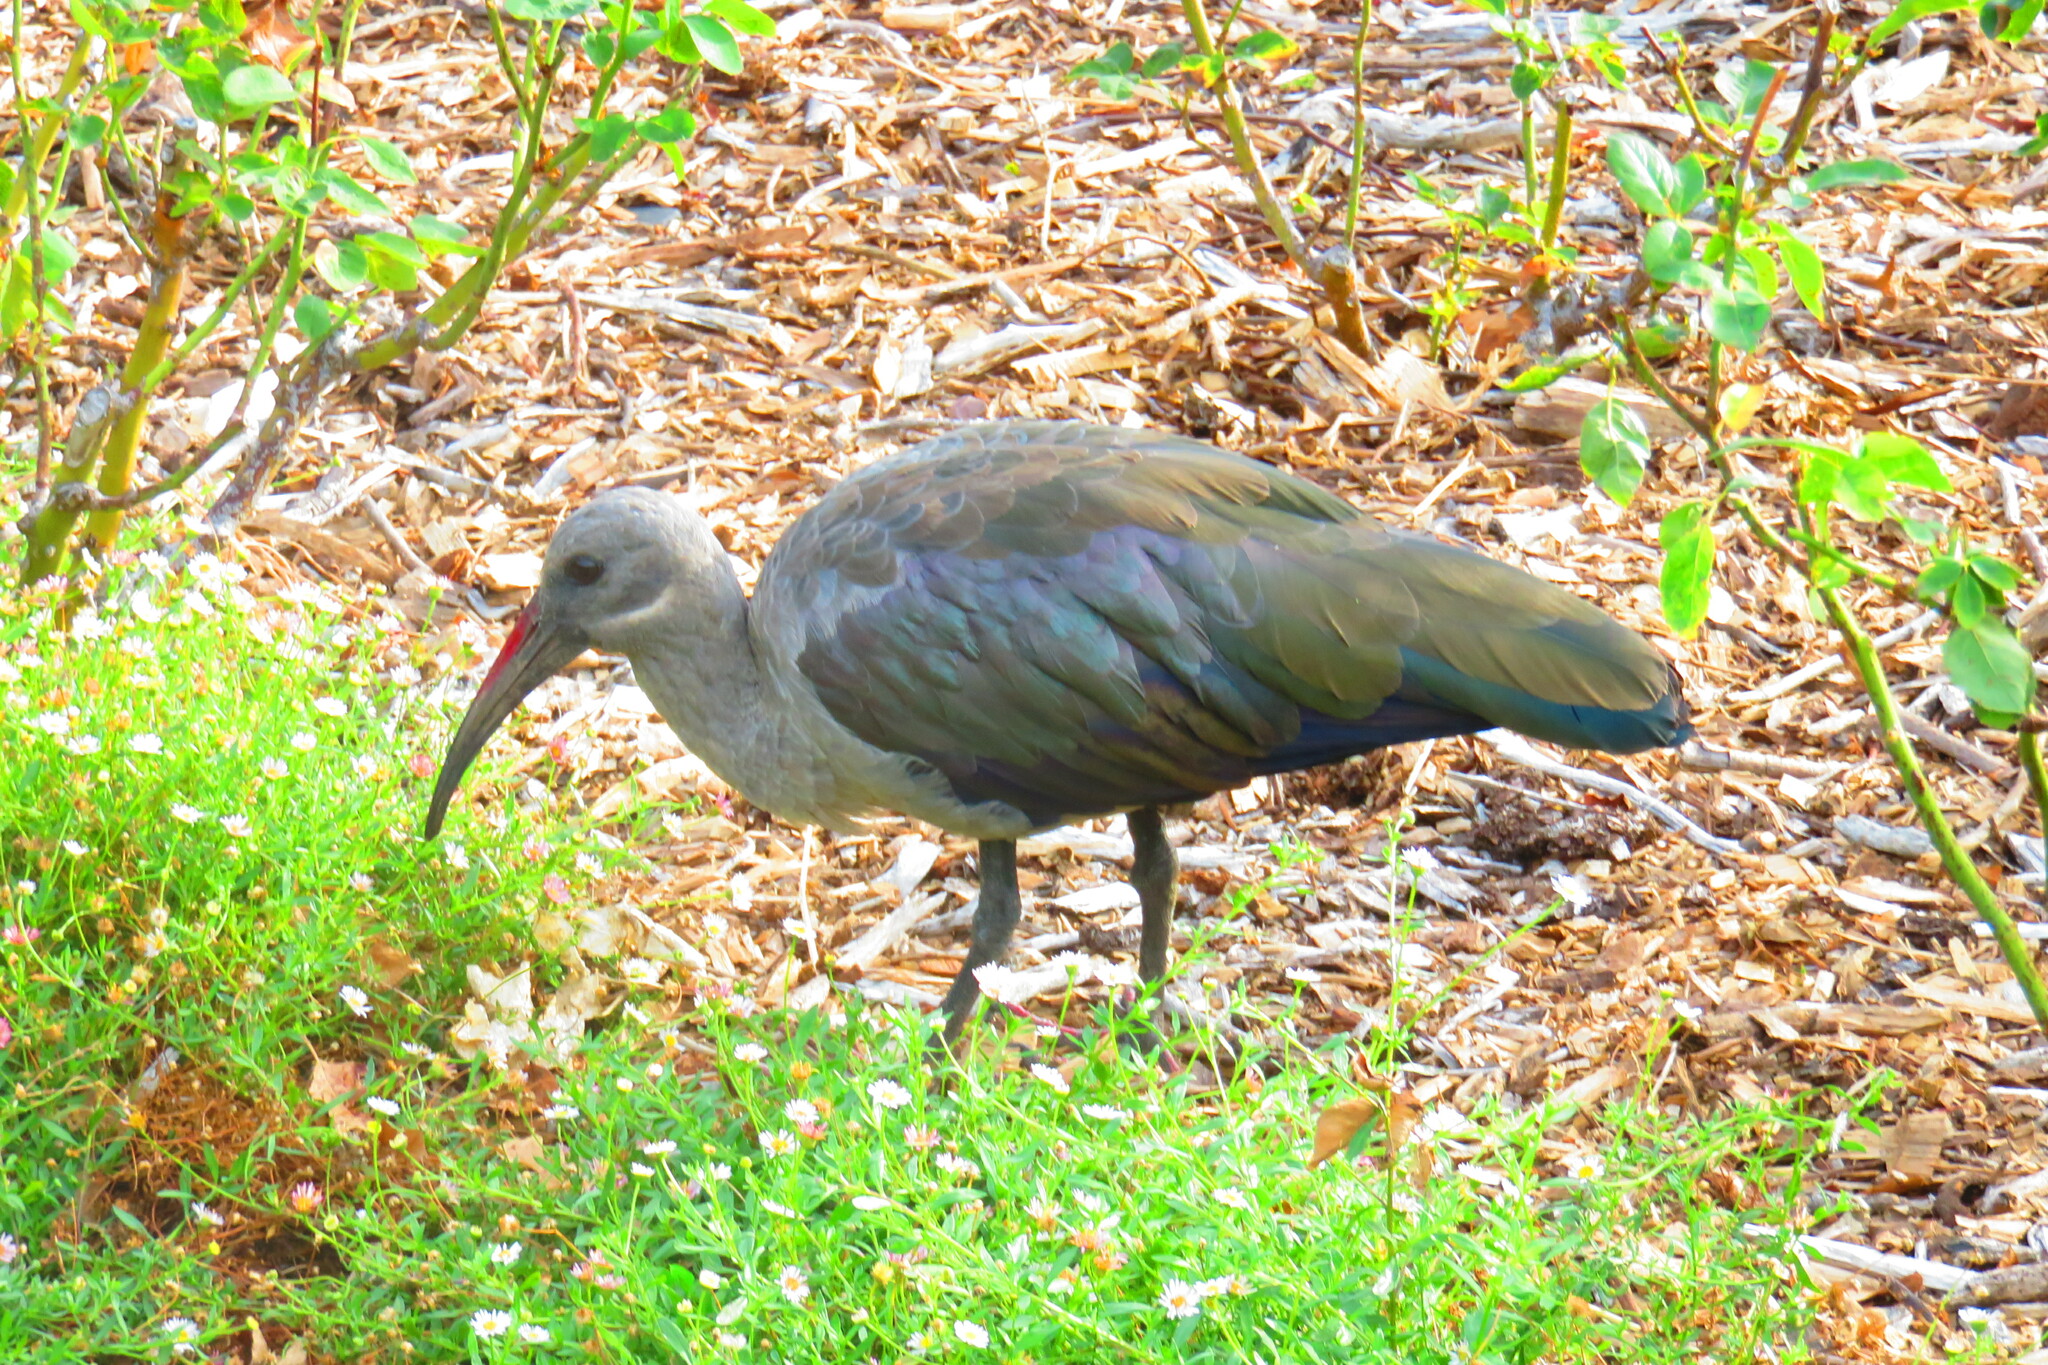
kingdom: Animalia
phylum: Chordata
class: Aves
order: Pelecaniformes
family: Threskiornithidae
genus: Bostrychia
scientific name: Bostrychia hagedash
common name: Hadada ibis
